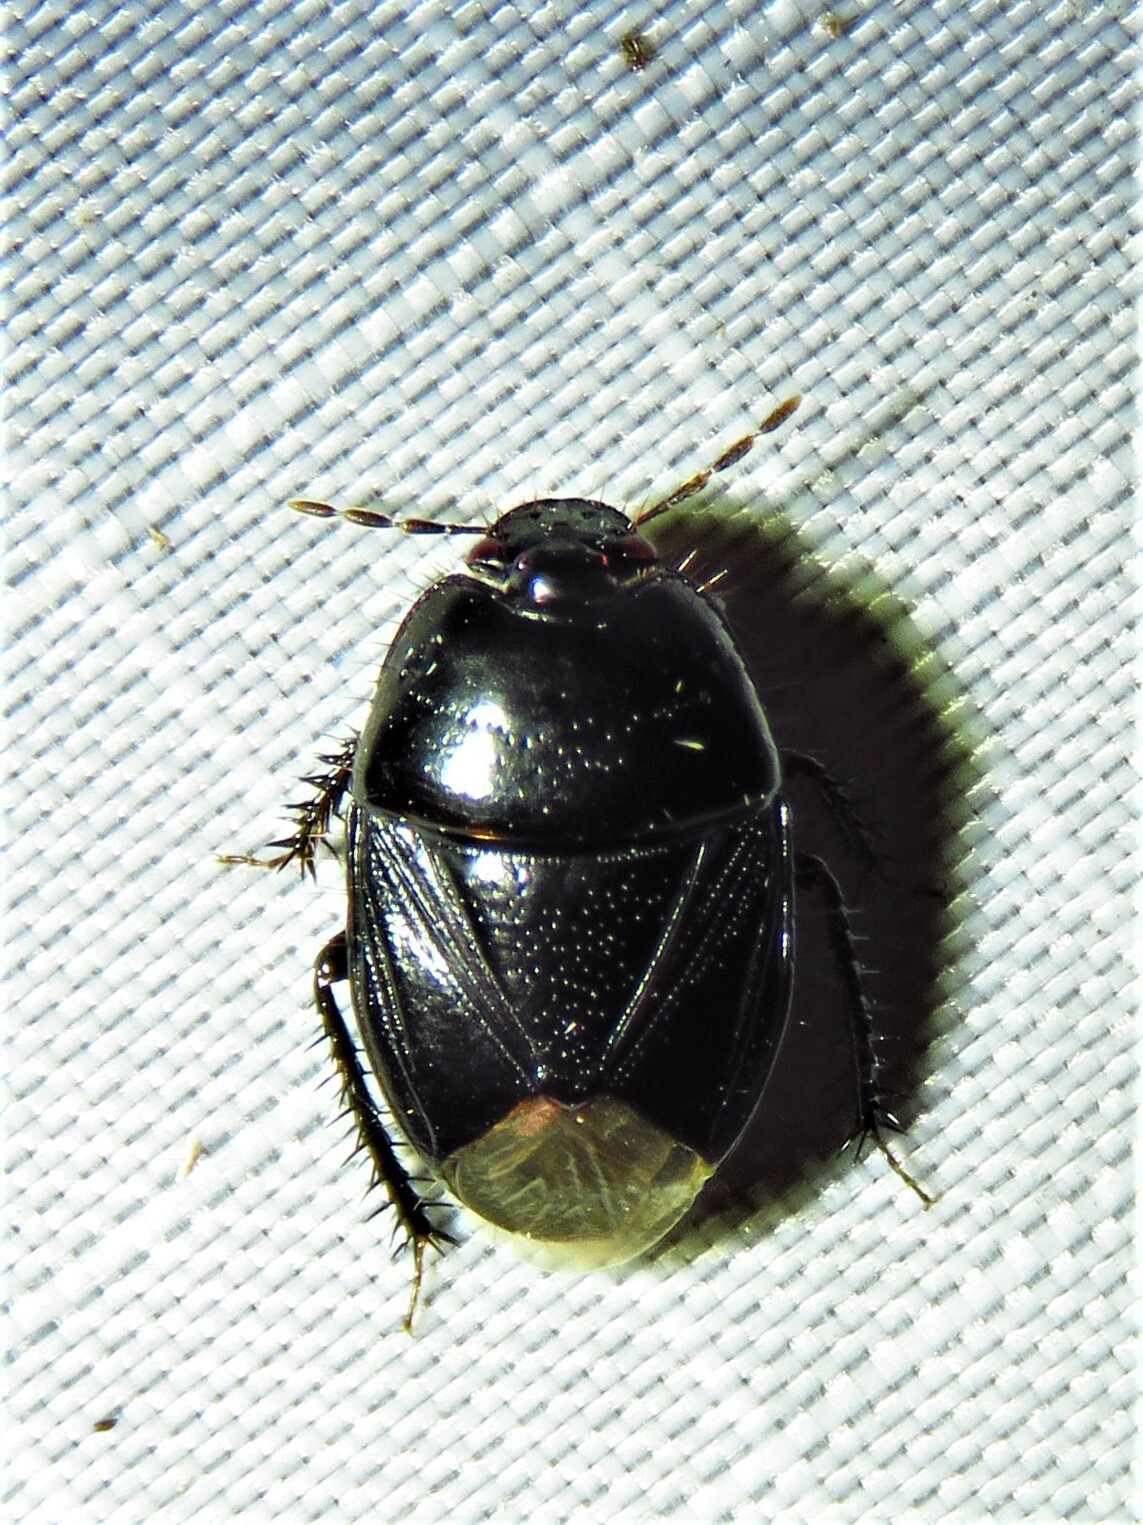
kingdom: Animalia
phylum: Arthropoda
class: Insecta
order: Hemiptera
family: Cydnidae
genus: Pangaeus
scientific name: Pangaeus bilineatus
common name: Burrower bug
